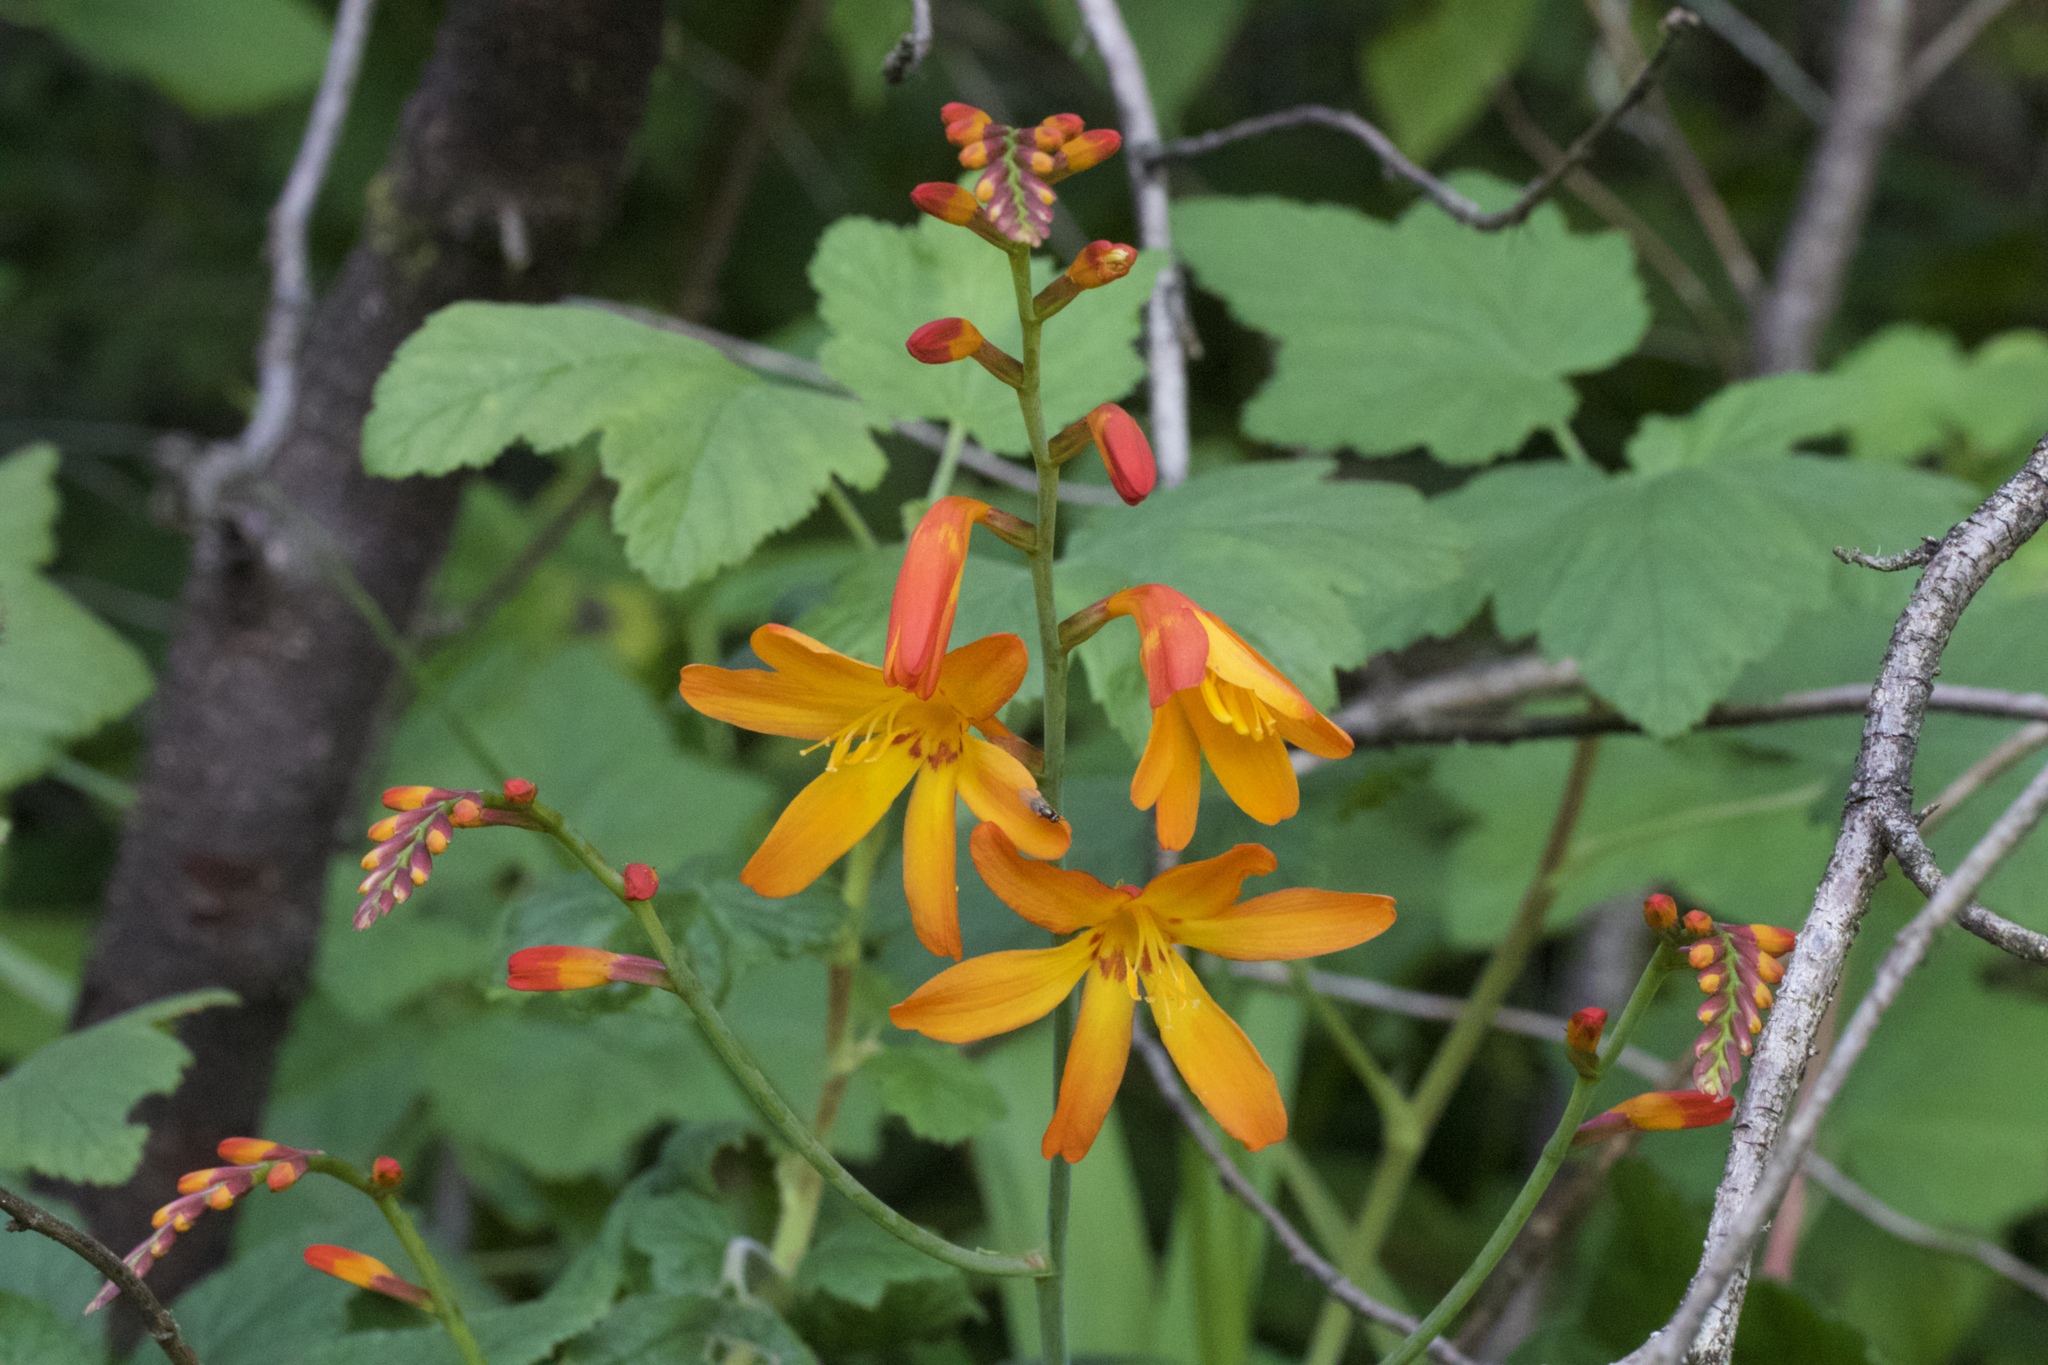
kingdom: Plantae
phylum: Tracheophyta
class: Liliopsida
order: Asparagales
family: Iridaceae
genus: Crocosmia
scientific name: Crocosmia crocosmiiflora
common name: Montbretia
